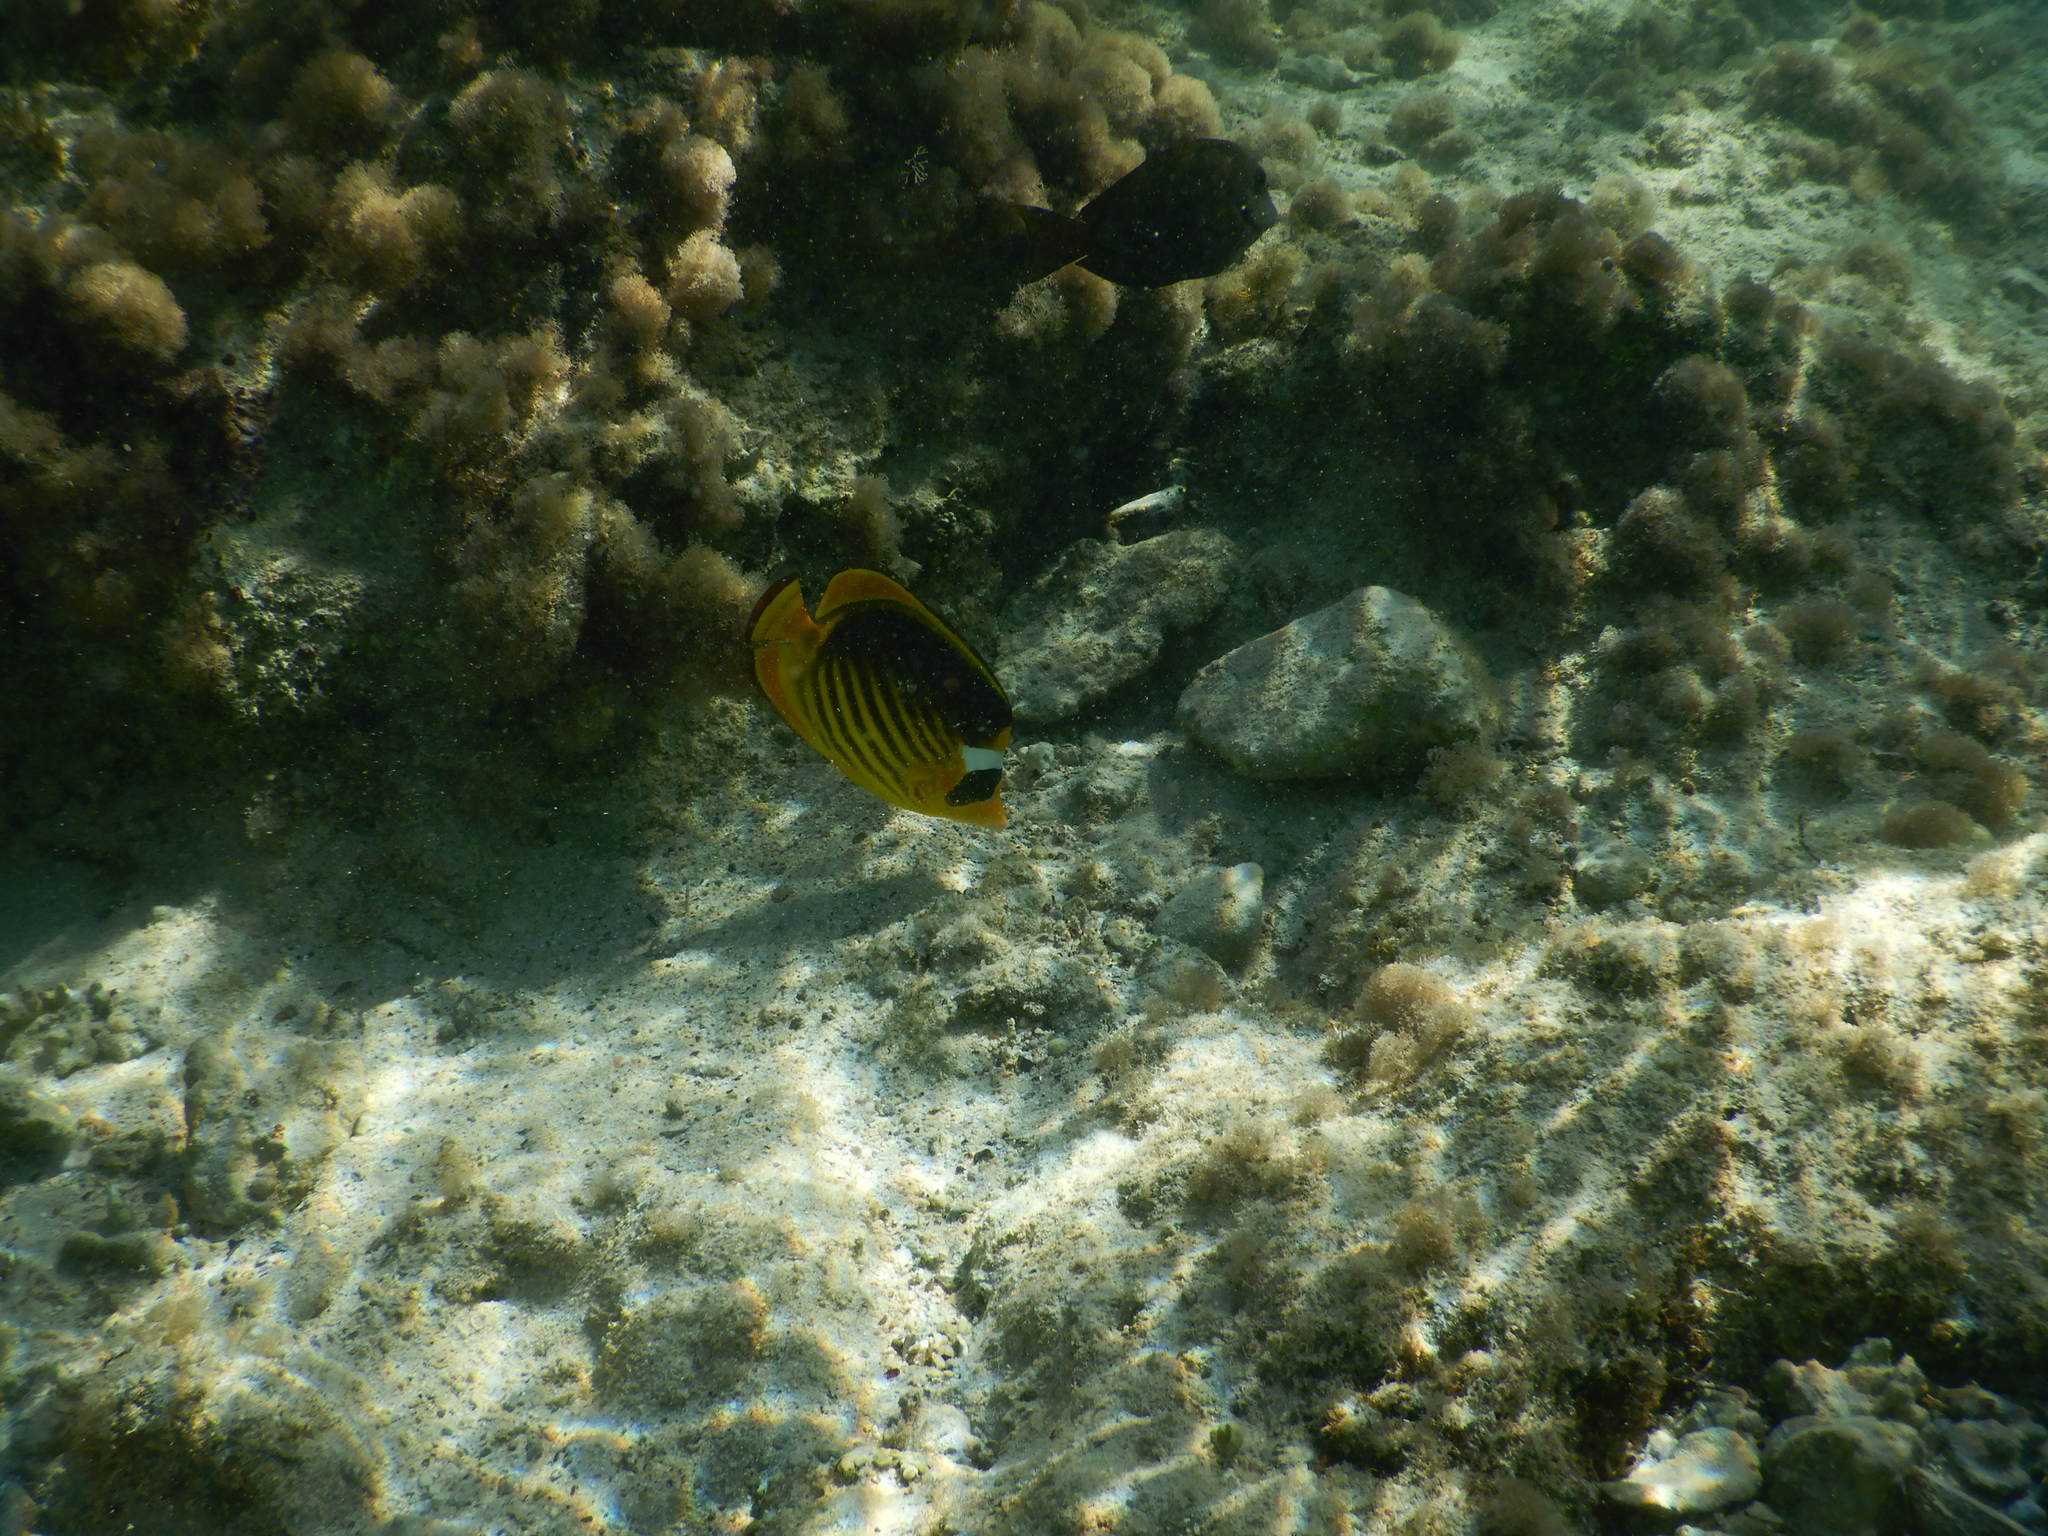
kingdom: Animalia
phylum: Chordata
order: Perciformes
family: Chaetodontidae
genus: Chaetodon
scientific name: Chaetodon fasciatus
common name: Diagonal butterflyfish
